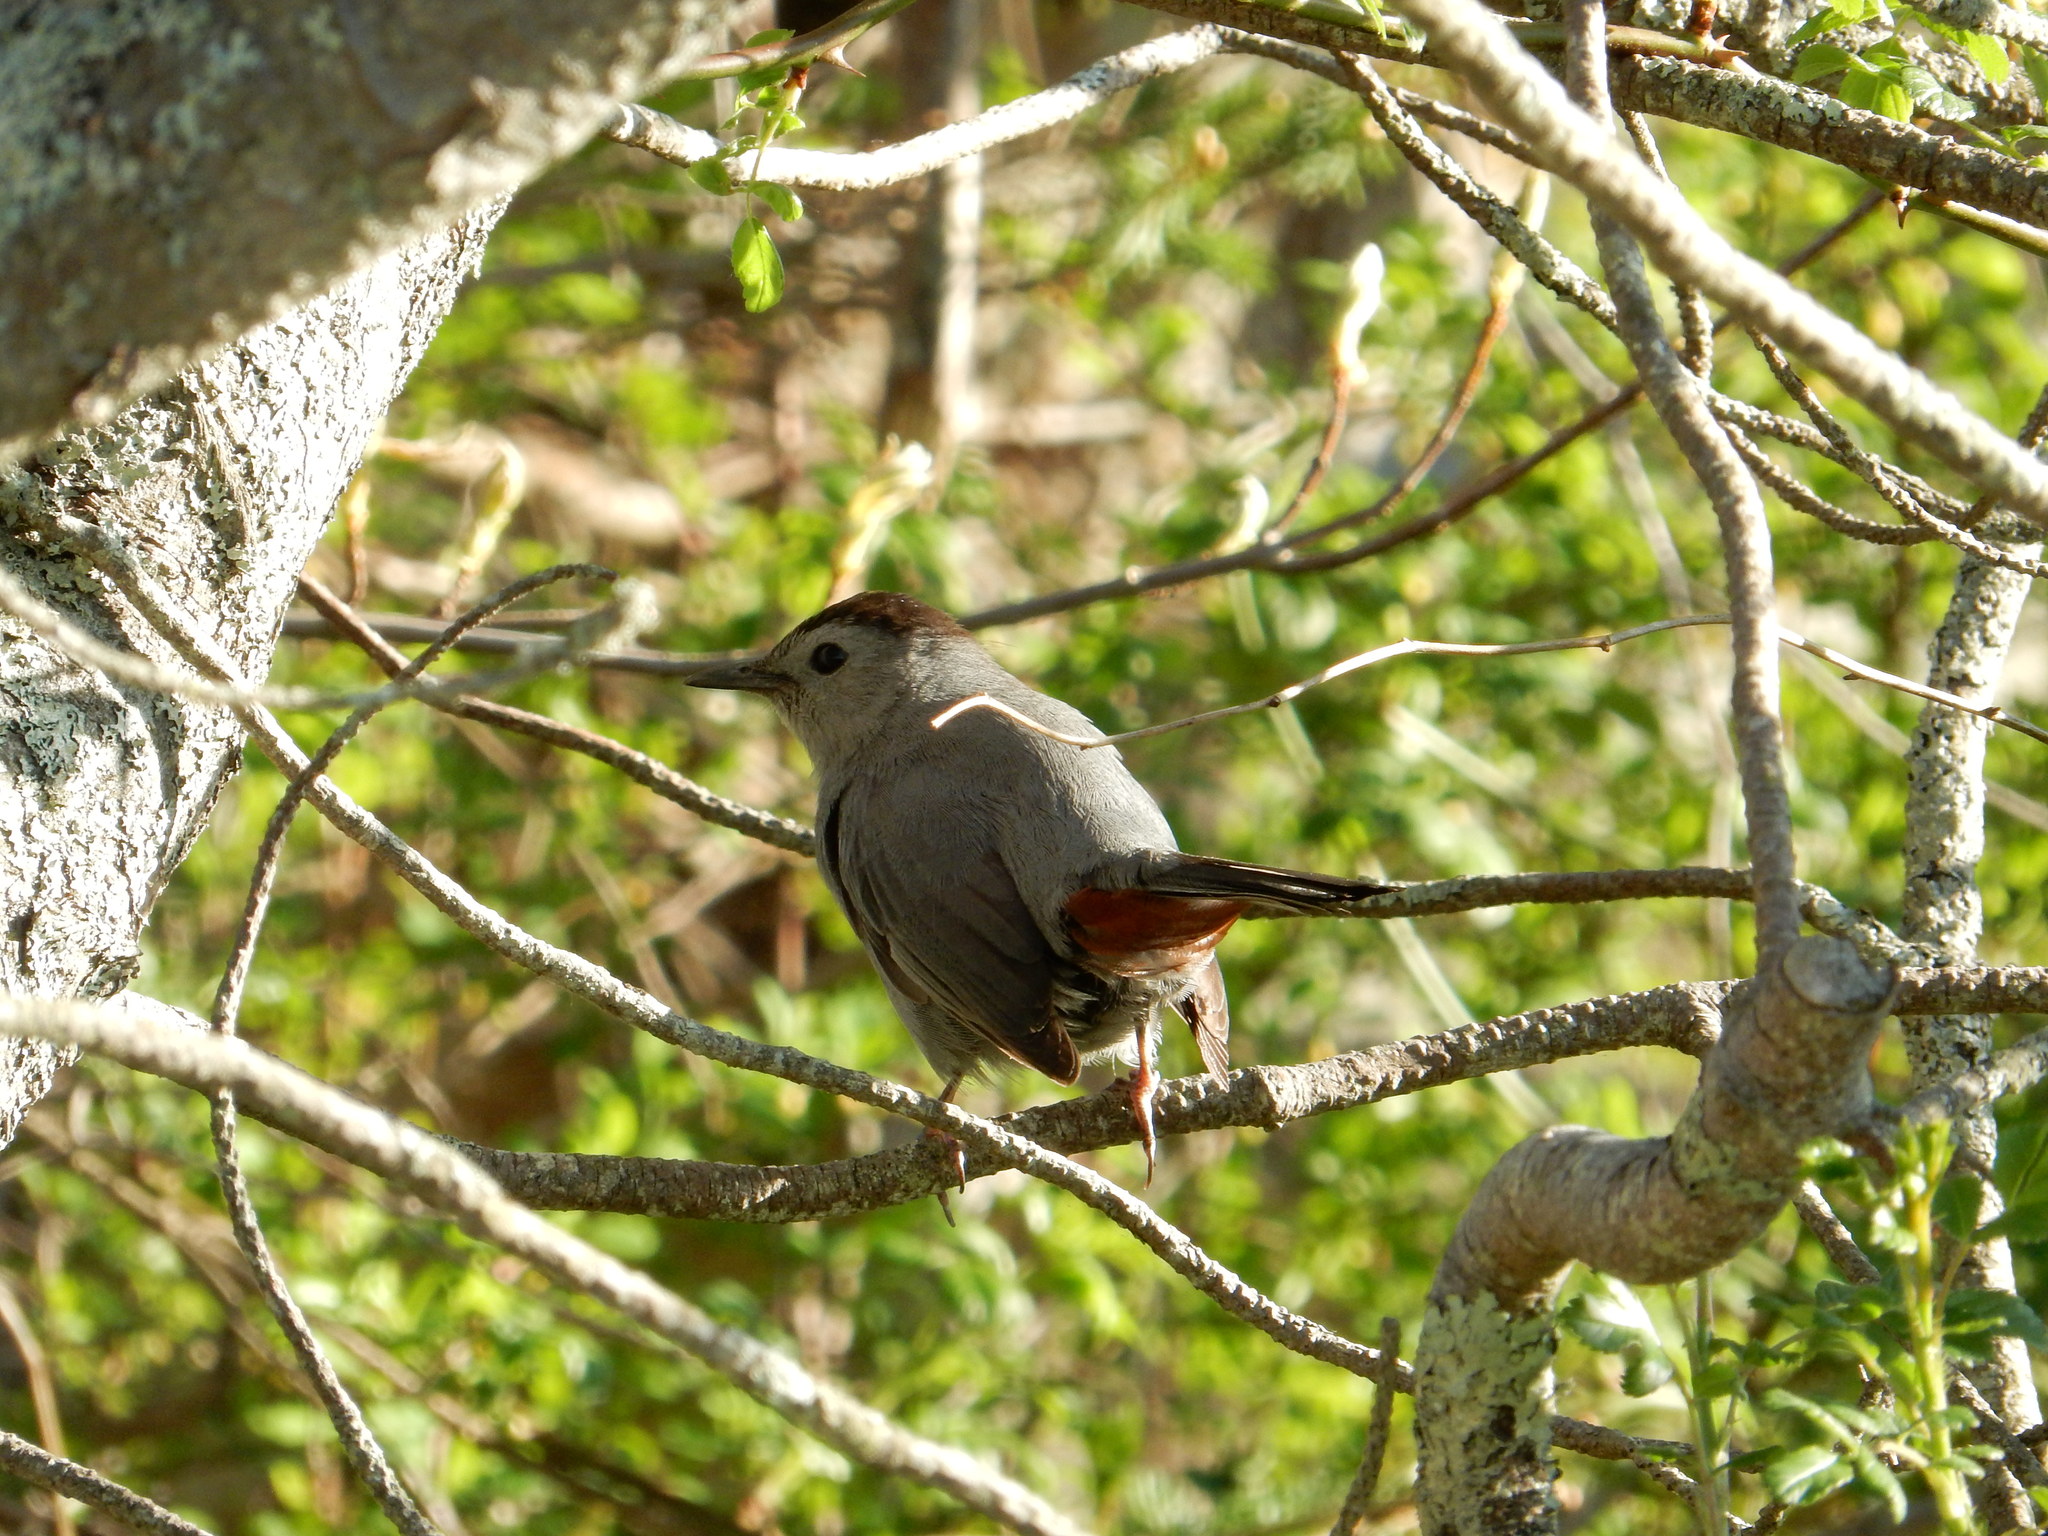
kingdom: Animalia
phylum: Chordata
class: Aves
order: Passeriformes
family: Mimidae
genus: Dumetella
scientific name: Dumetella carolinensis
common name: Gray catbird
